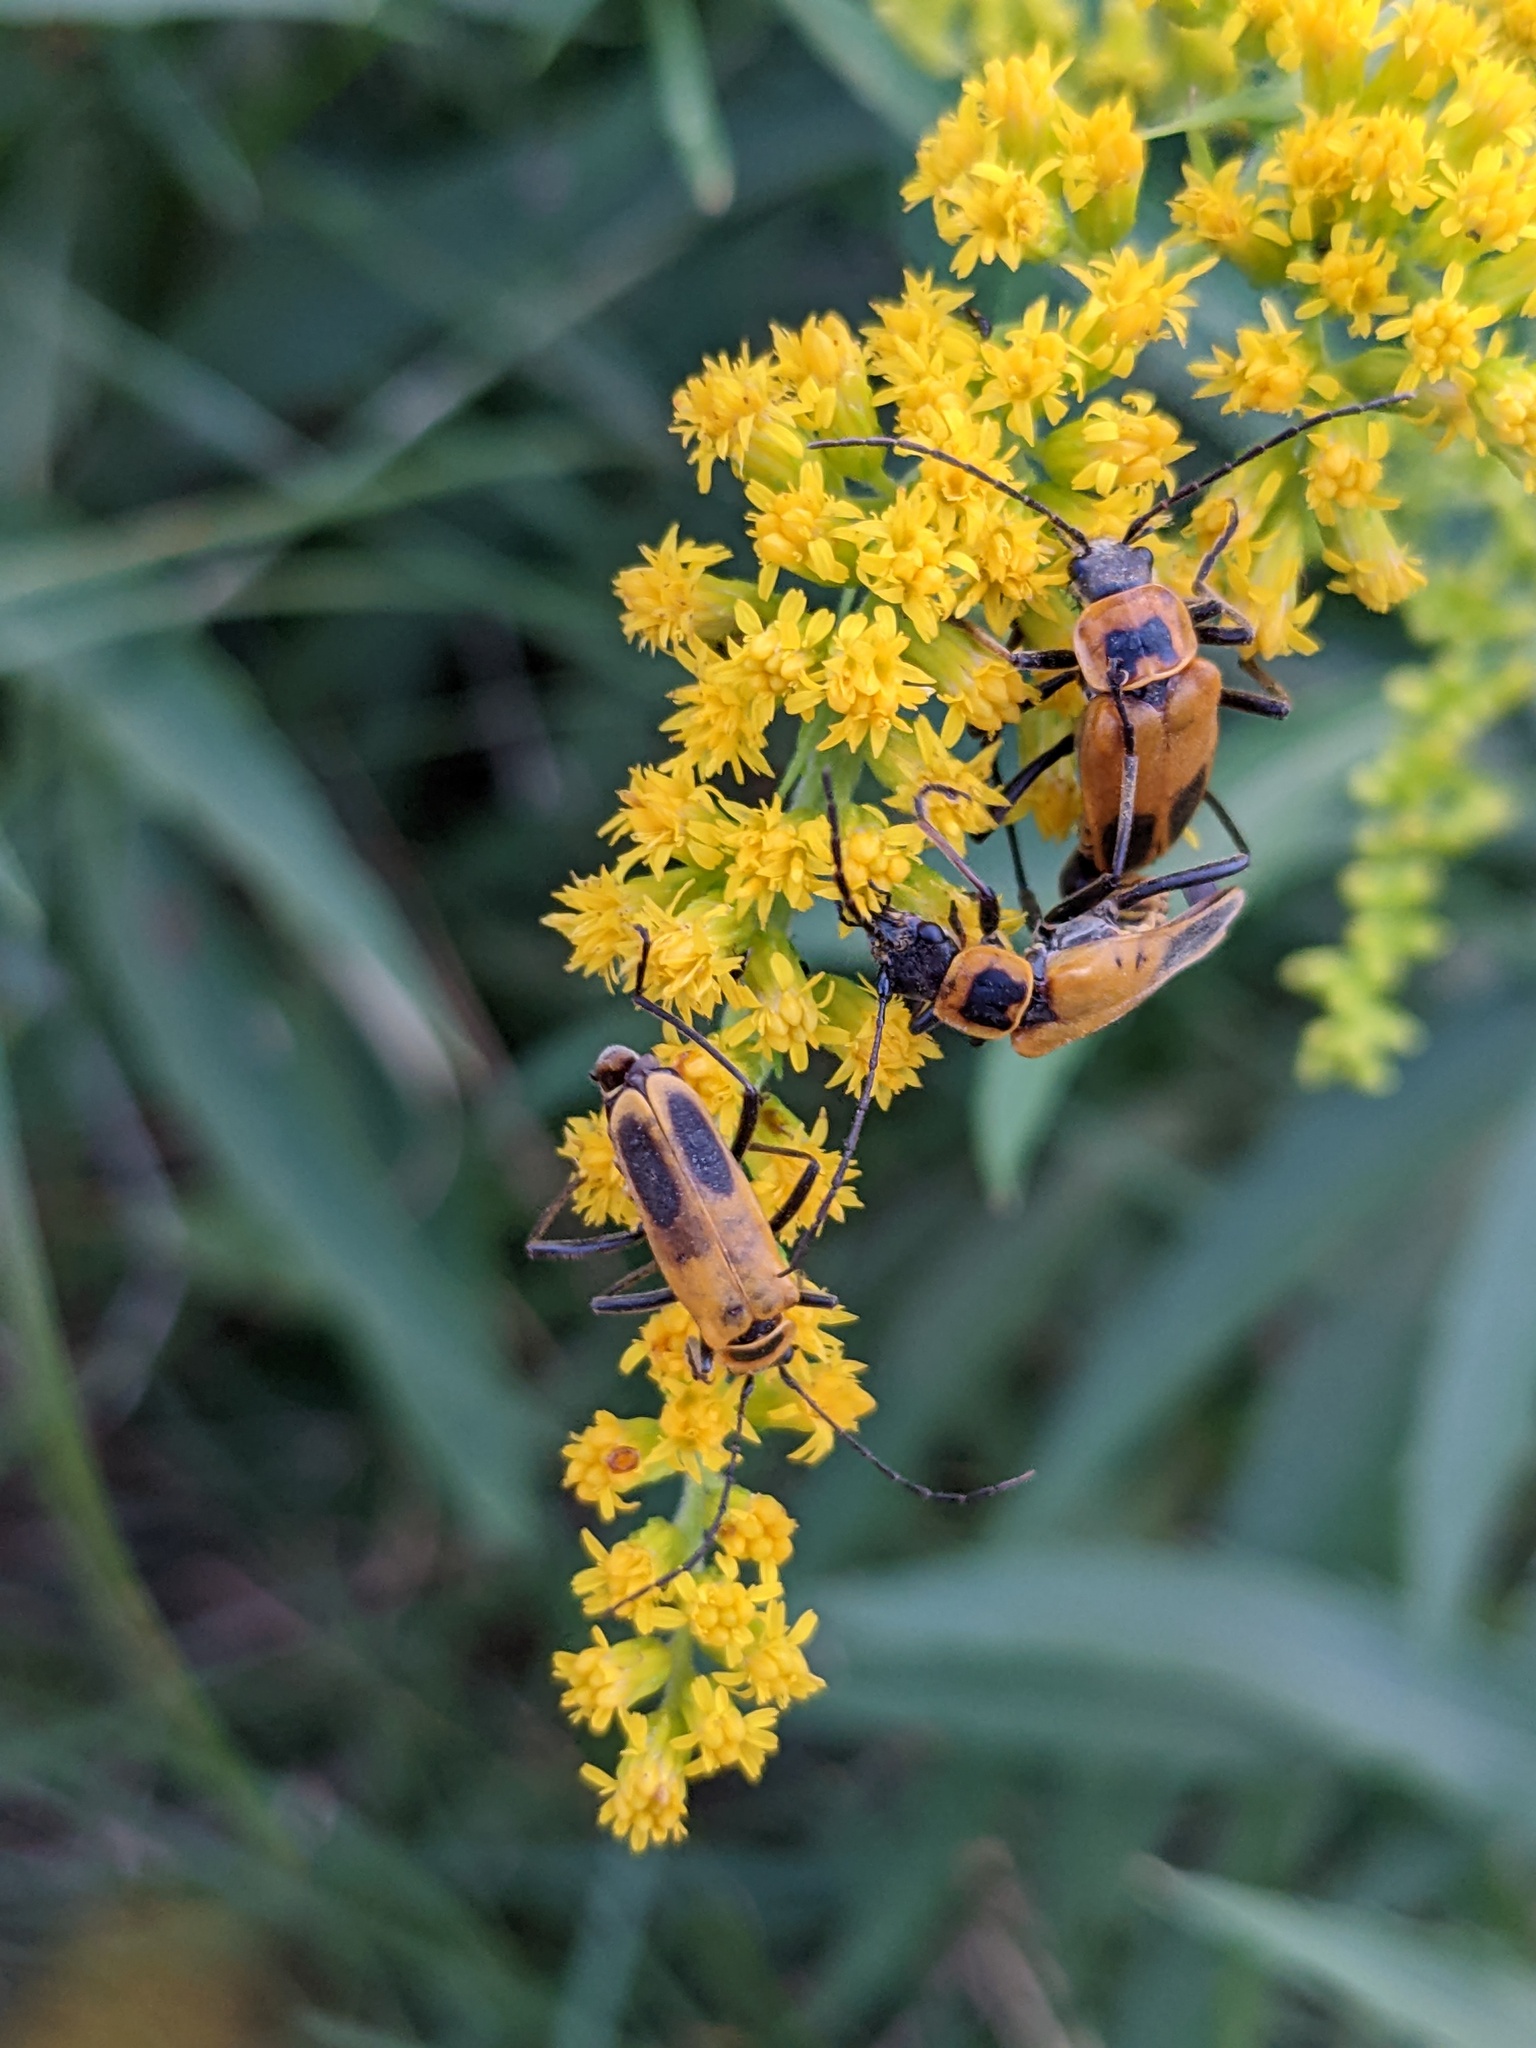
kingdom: Animalia
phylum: Arthropoda
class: Insecta
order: Coleoptera
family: Cantharidae
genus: Chauliognathus
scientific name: Chauliognathus pensylvanicus
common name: Goldenrod soldier beetle
